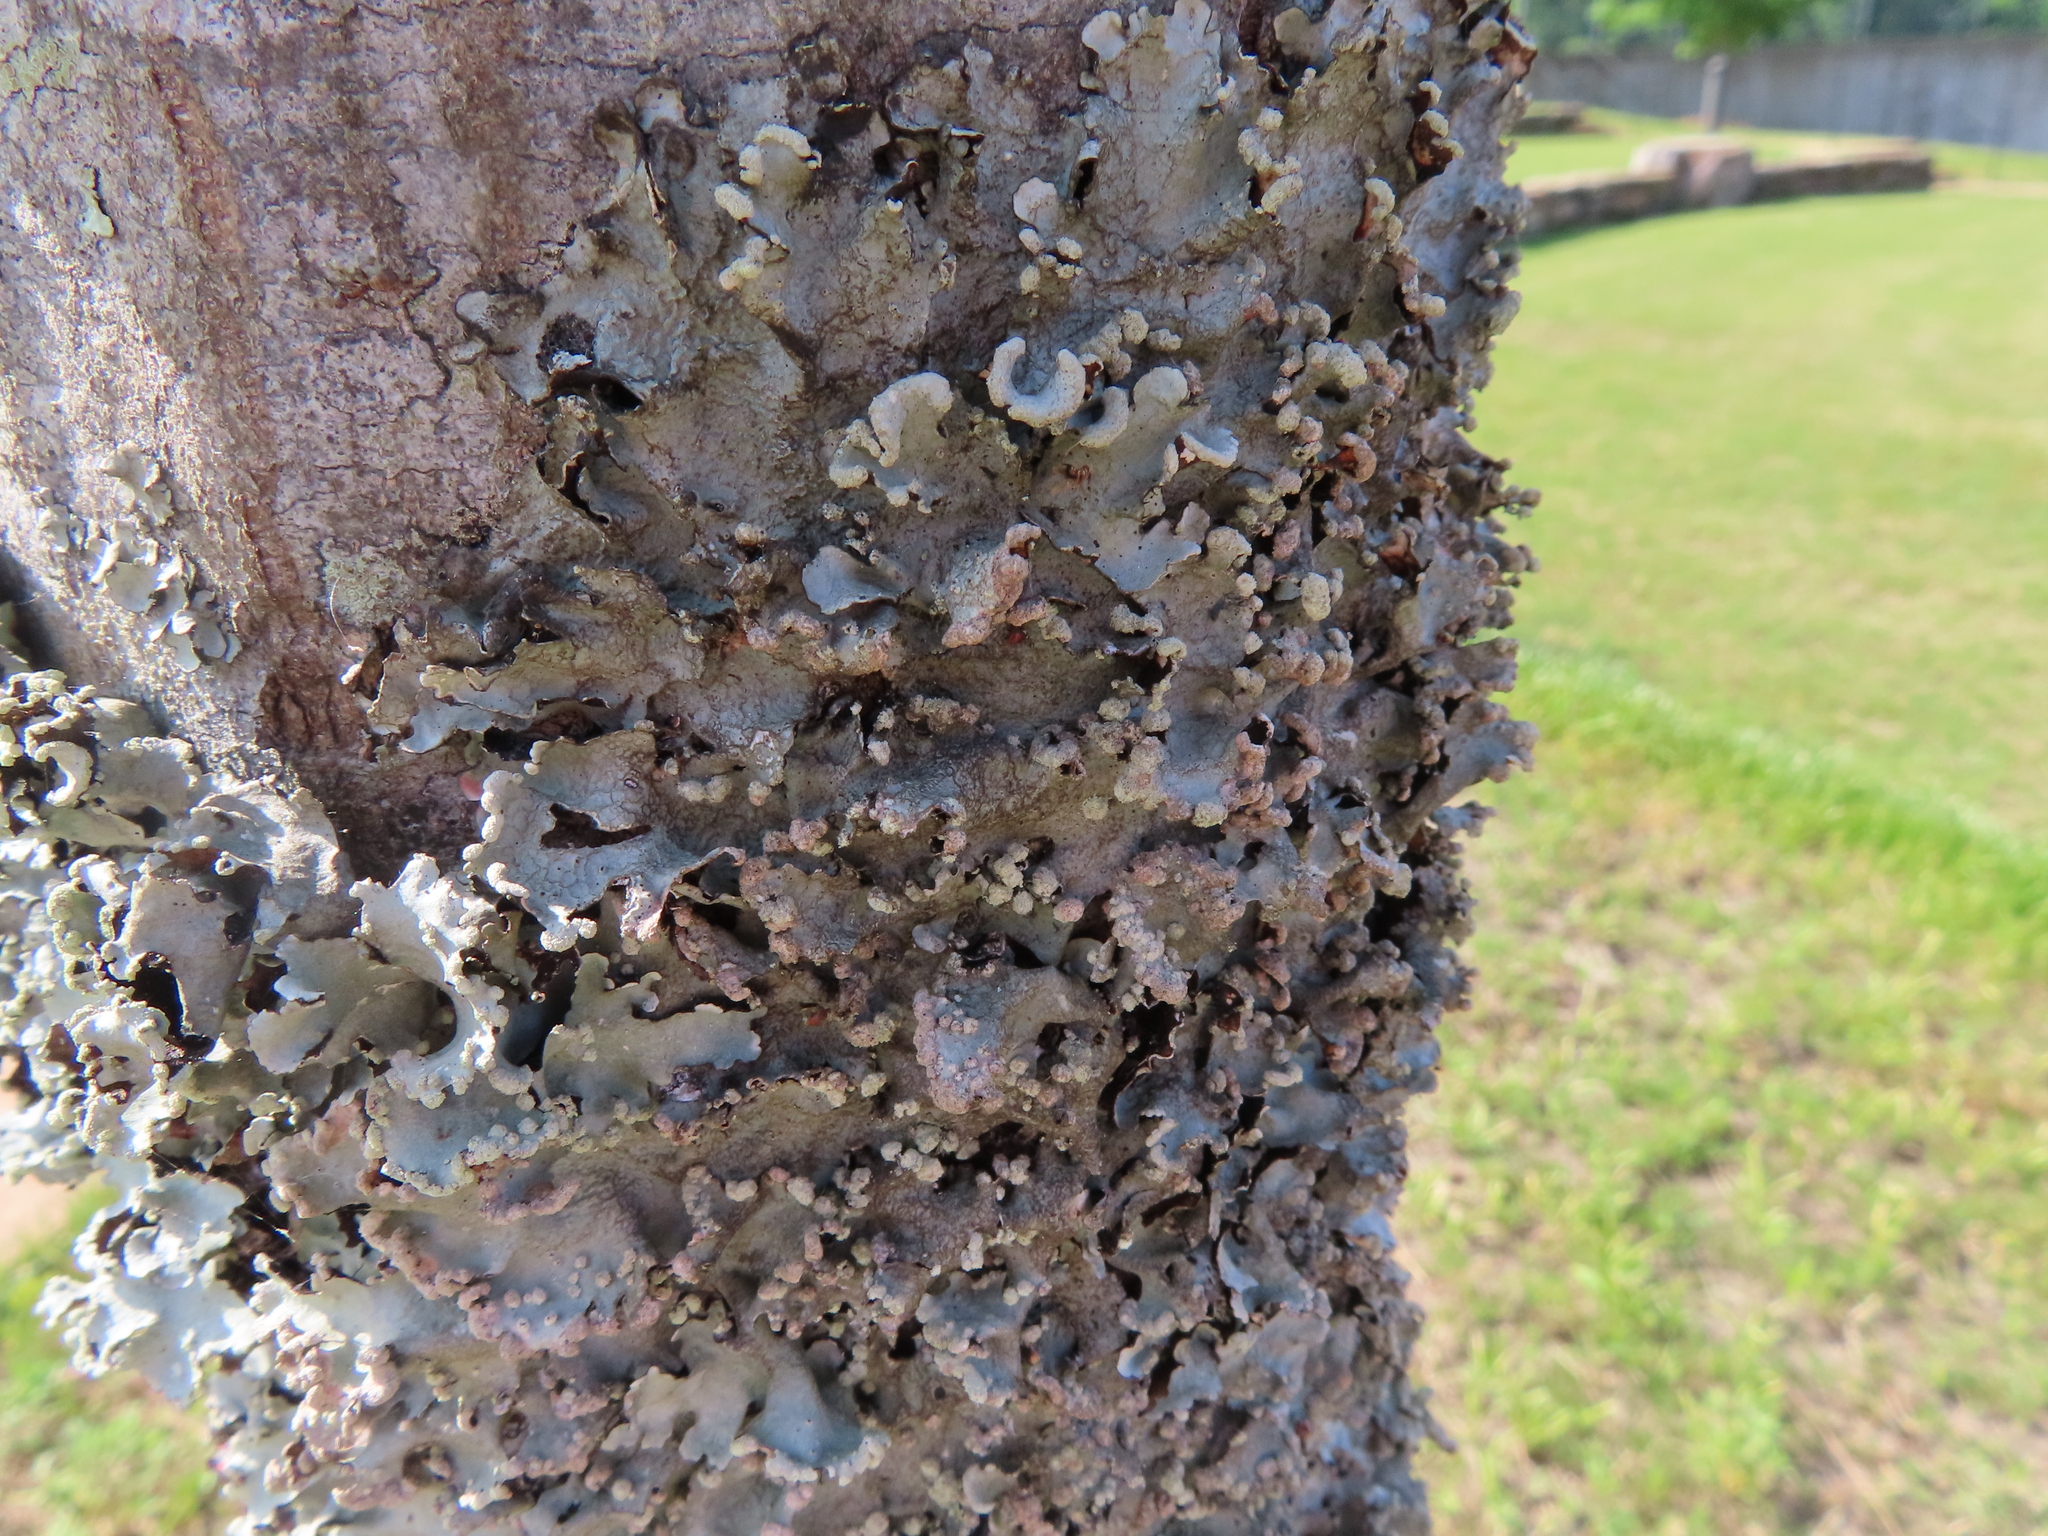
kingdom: Fungi
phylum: Ascomycota
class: Lecanoromycetes
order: Lecanorales
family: Parmeliaceae
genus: Parmotrema
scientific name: Parmotrema reticulatum
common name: Black sheet lichen
